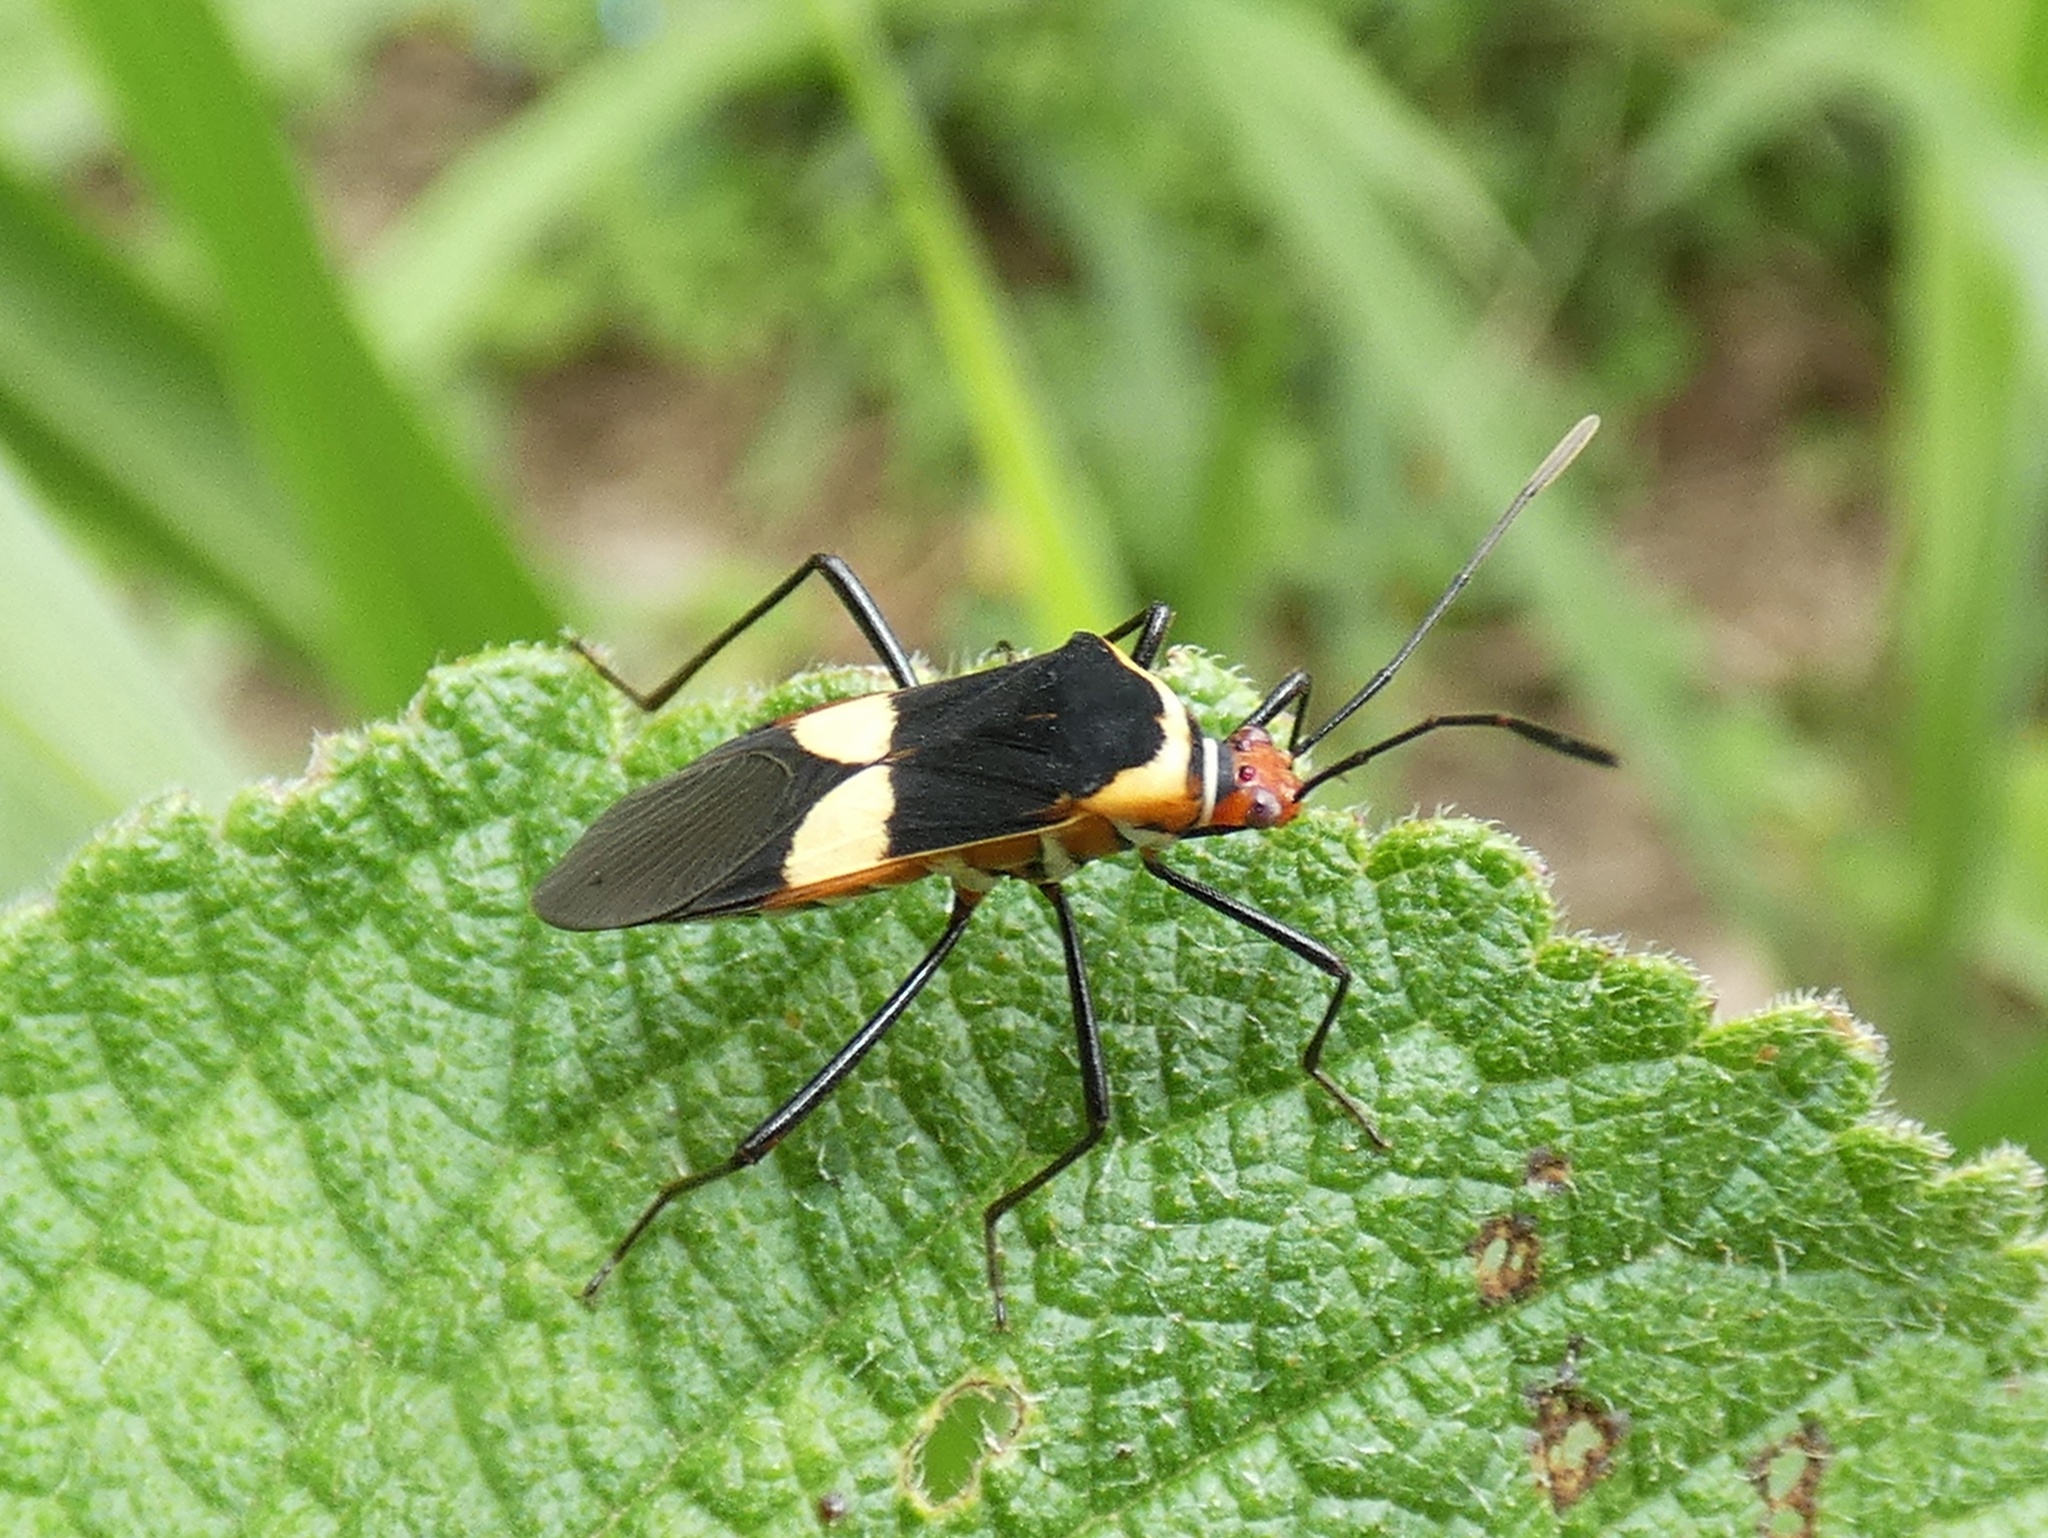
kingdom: Animalia
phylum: Arthropoda
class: Insecta
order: Hemiptera
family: Coreidae
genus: Hypselonotus
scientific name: Hypselonotus interruptus
